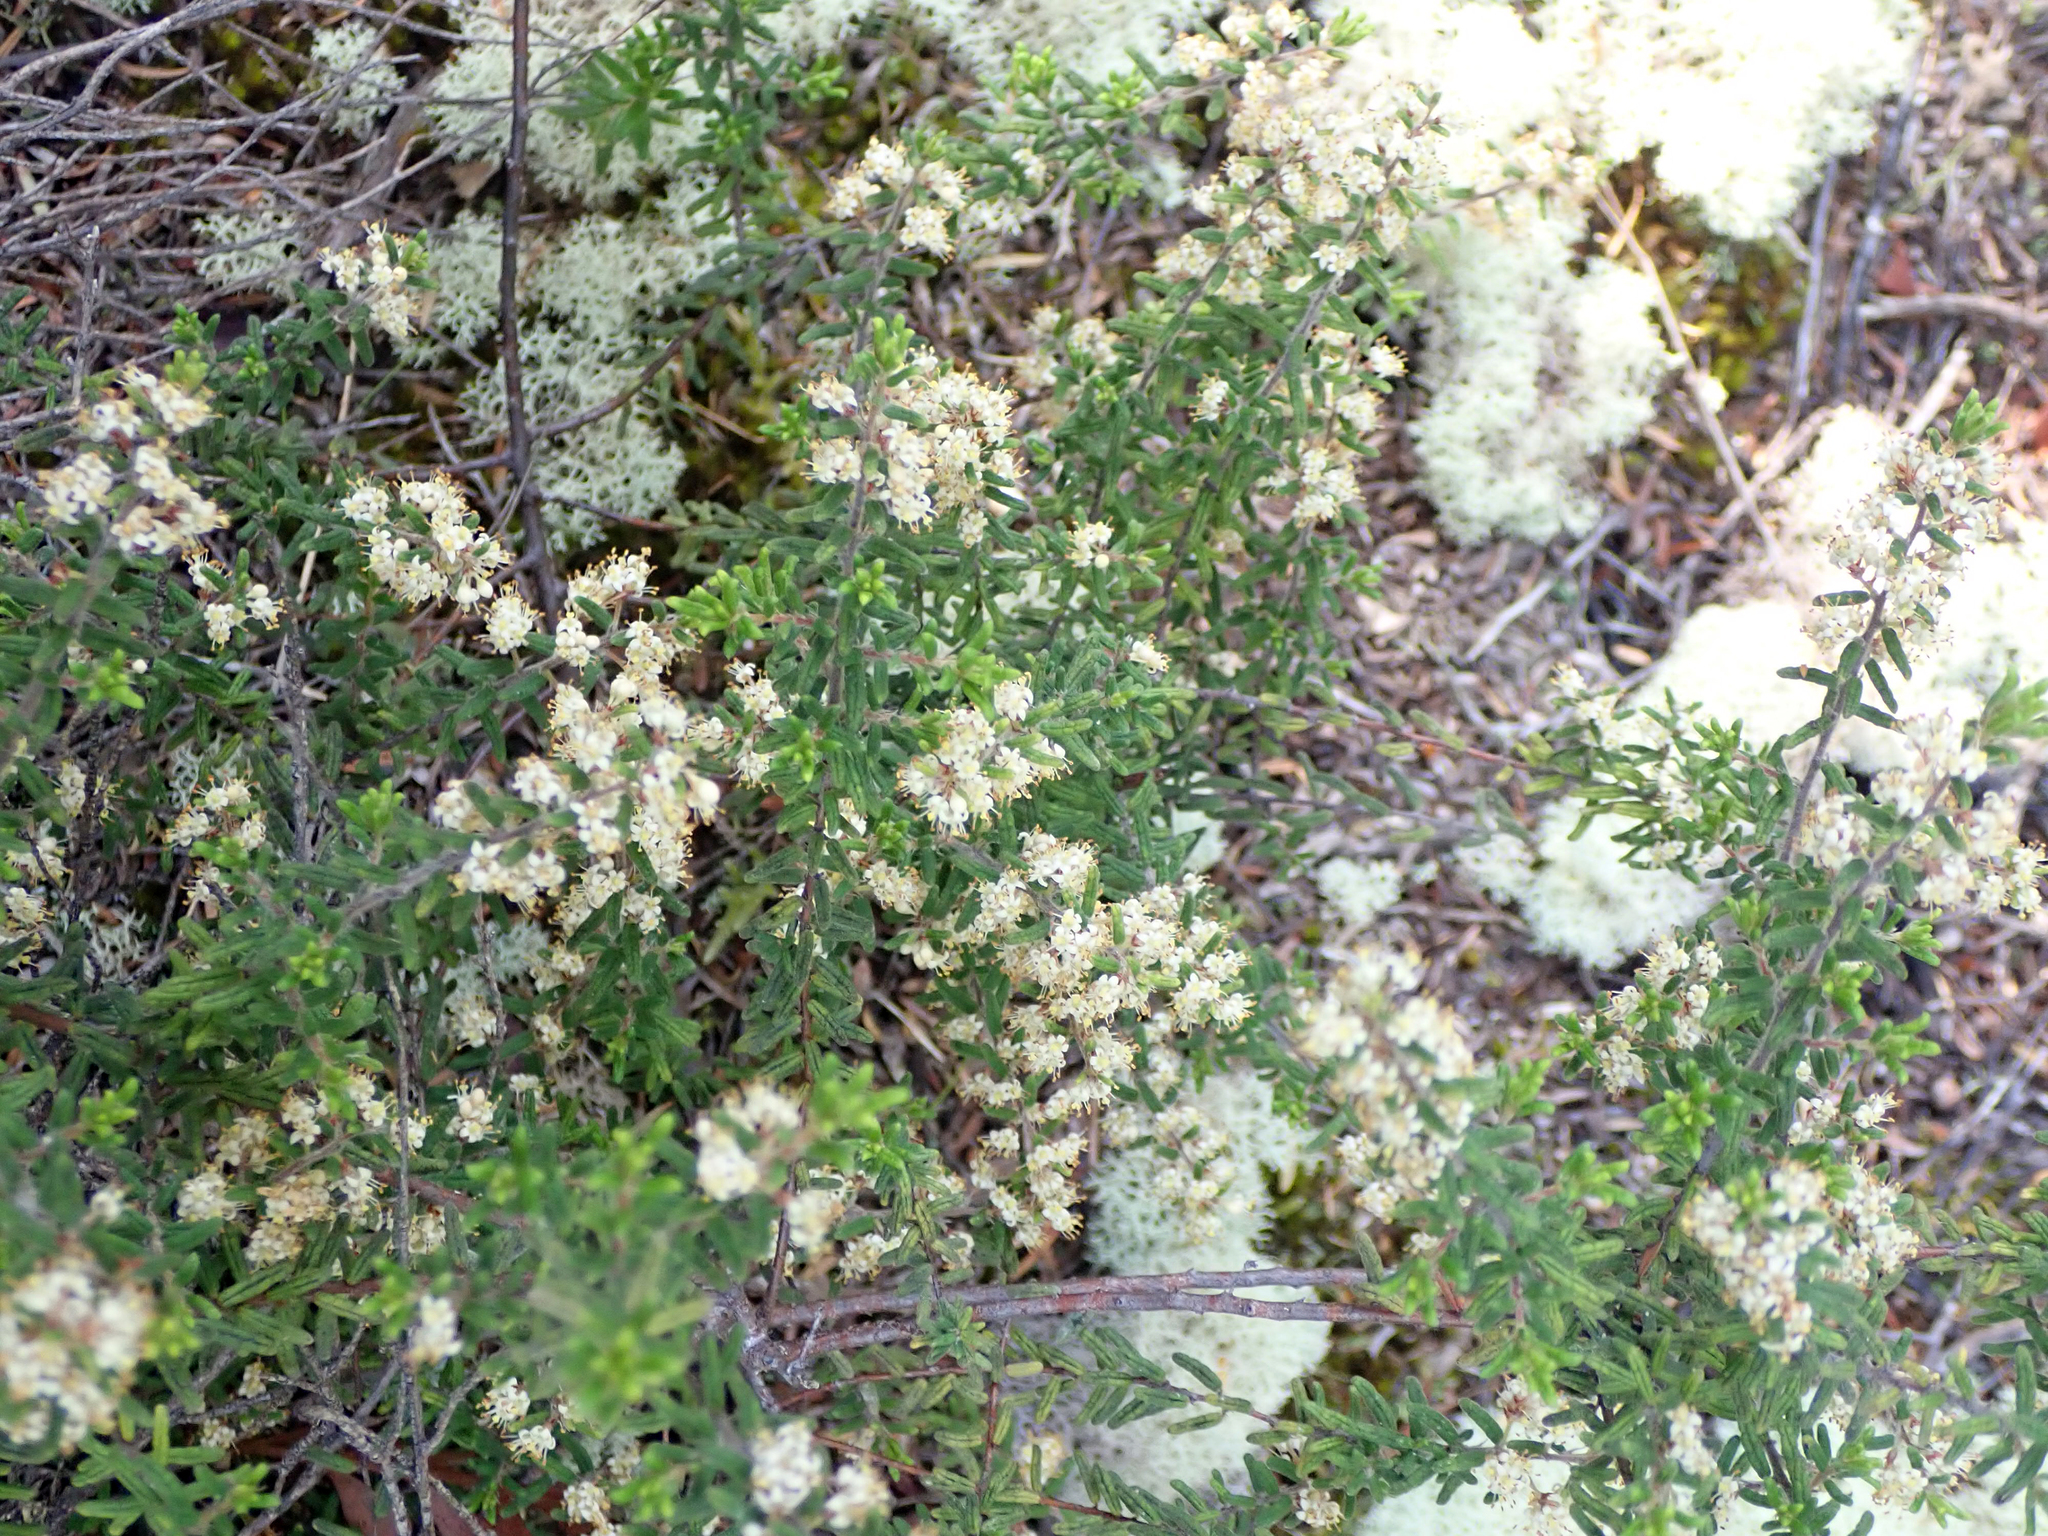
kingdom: Plantae
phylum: Tracheophyta
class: Magnoliopsida
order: Rosales
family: Rhamnaceae
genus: Pomaderris
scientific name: Pomaderris amoena
